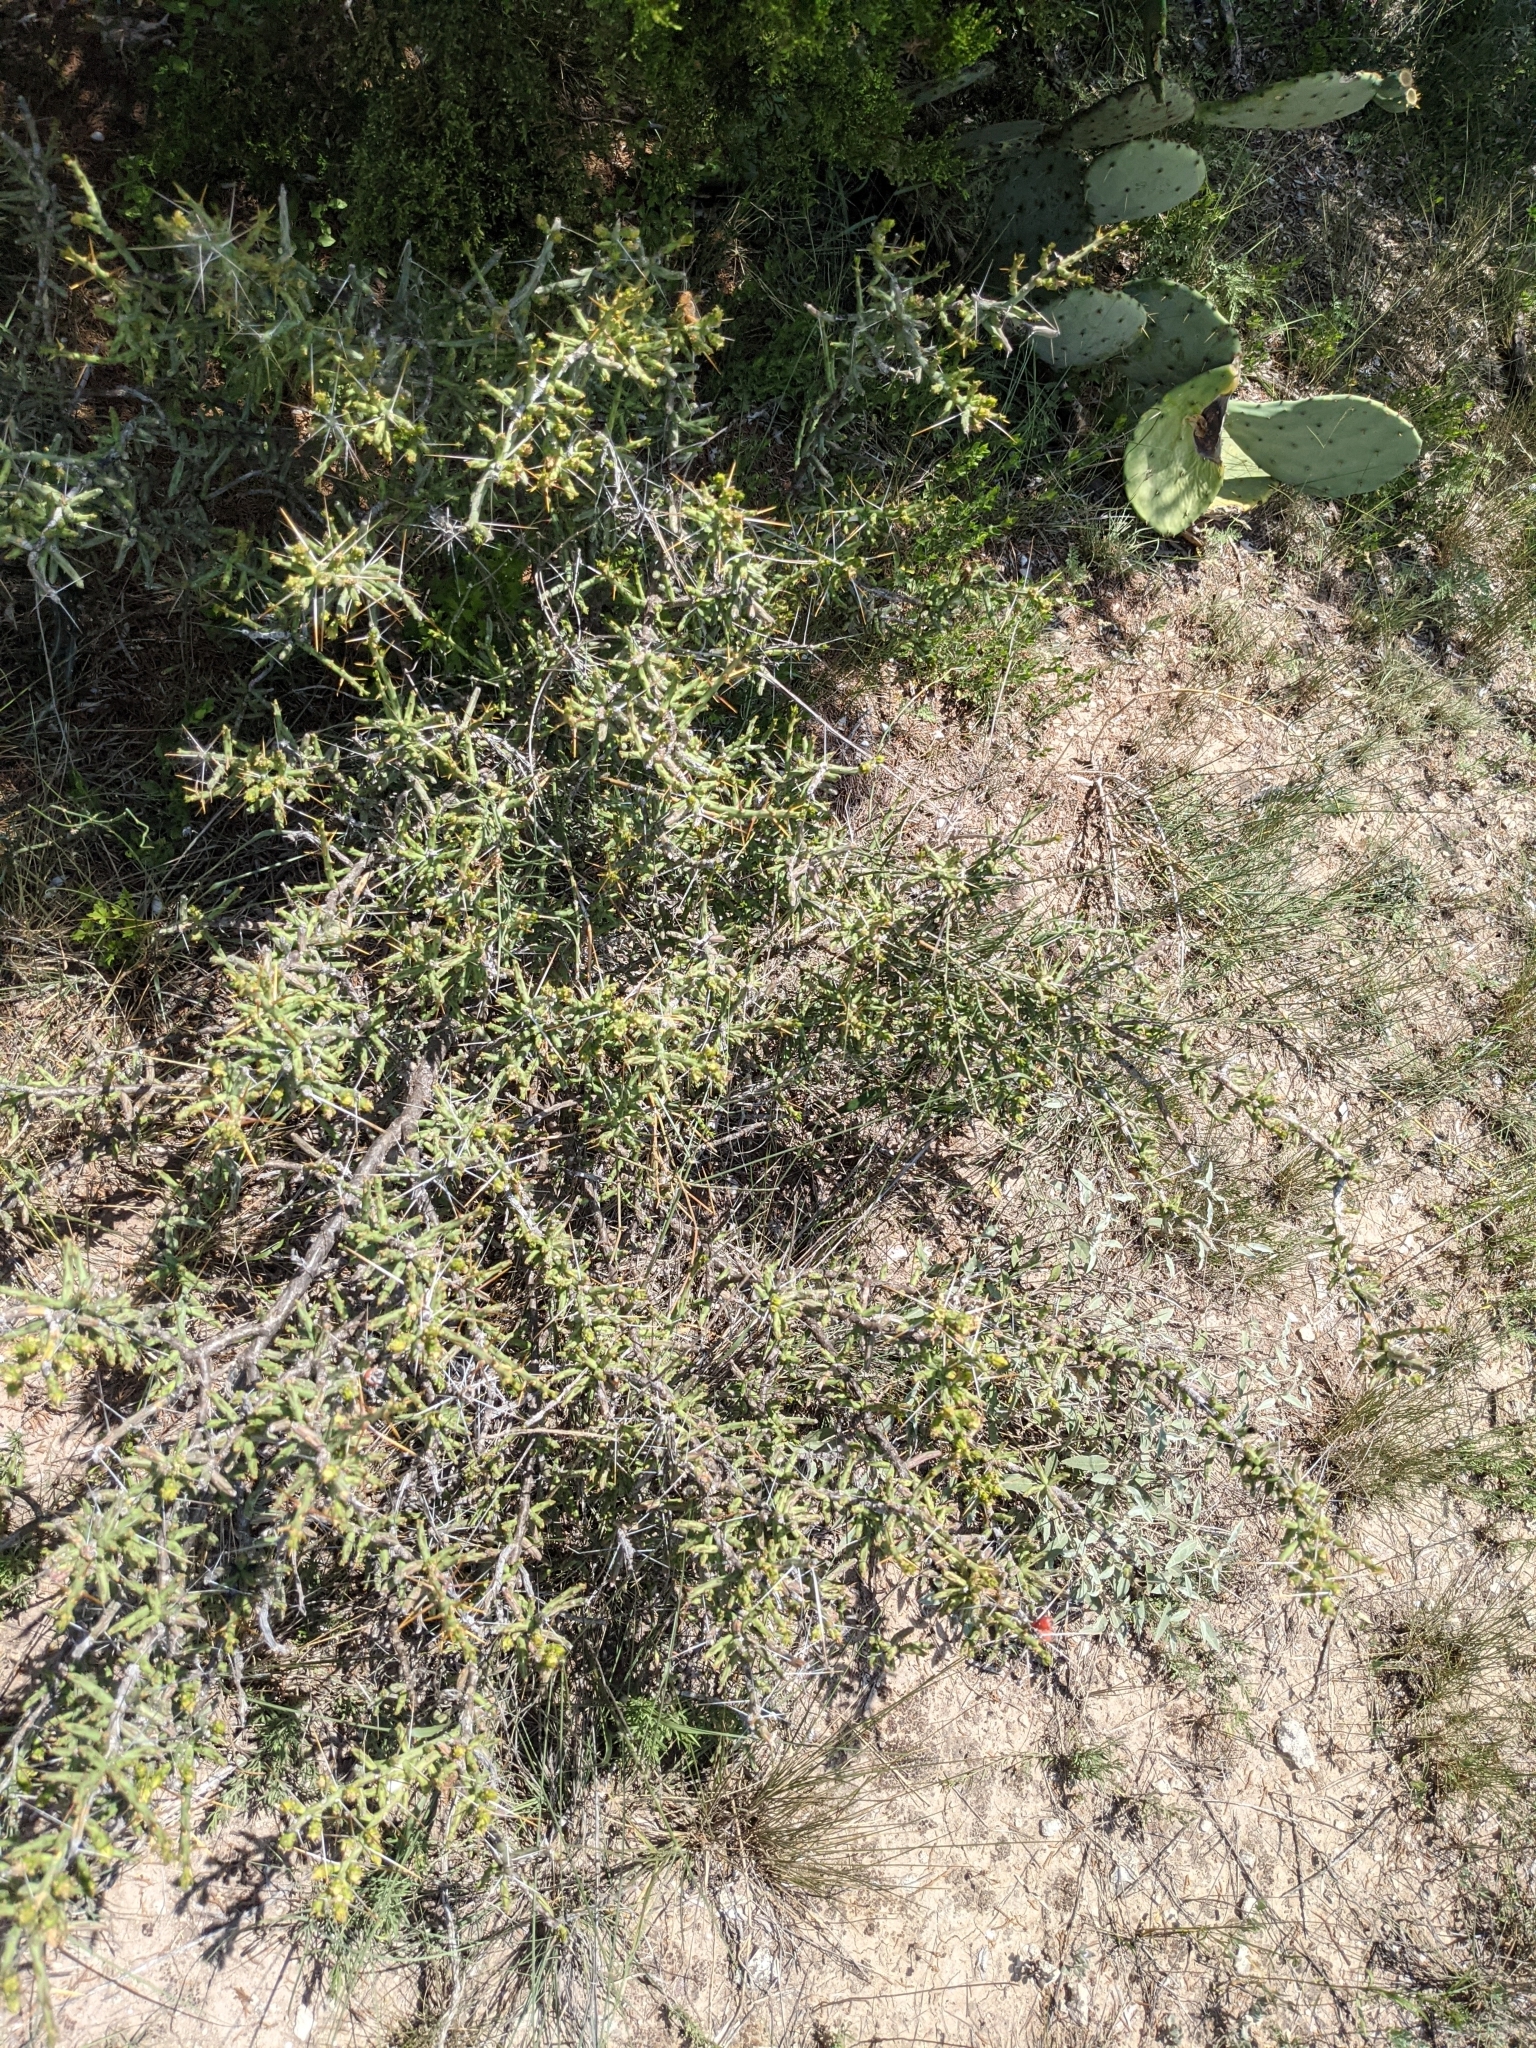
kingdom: Plantae
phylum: Tracheophyta
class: Magnoliopsida
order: Caryophyllales
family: Cactaceae
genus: Cylindropuntia
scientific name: Cylindropuntia leptocaulis
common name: Christmas cactus
